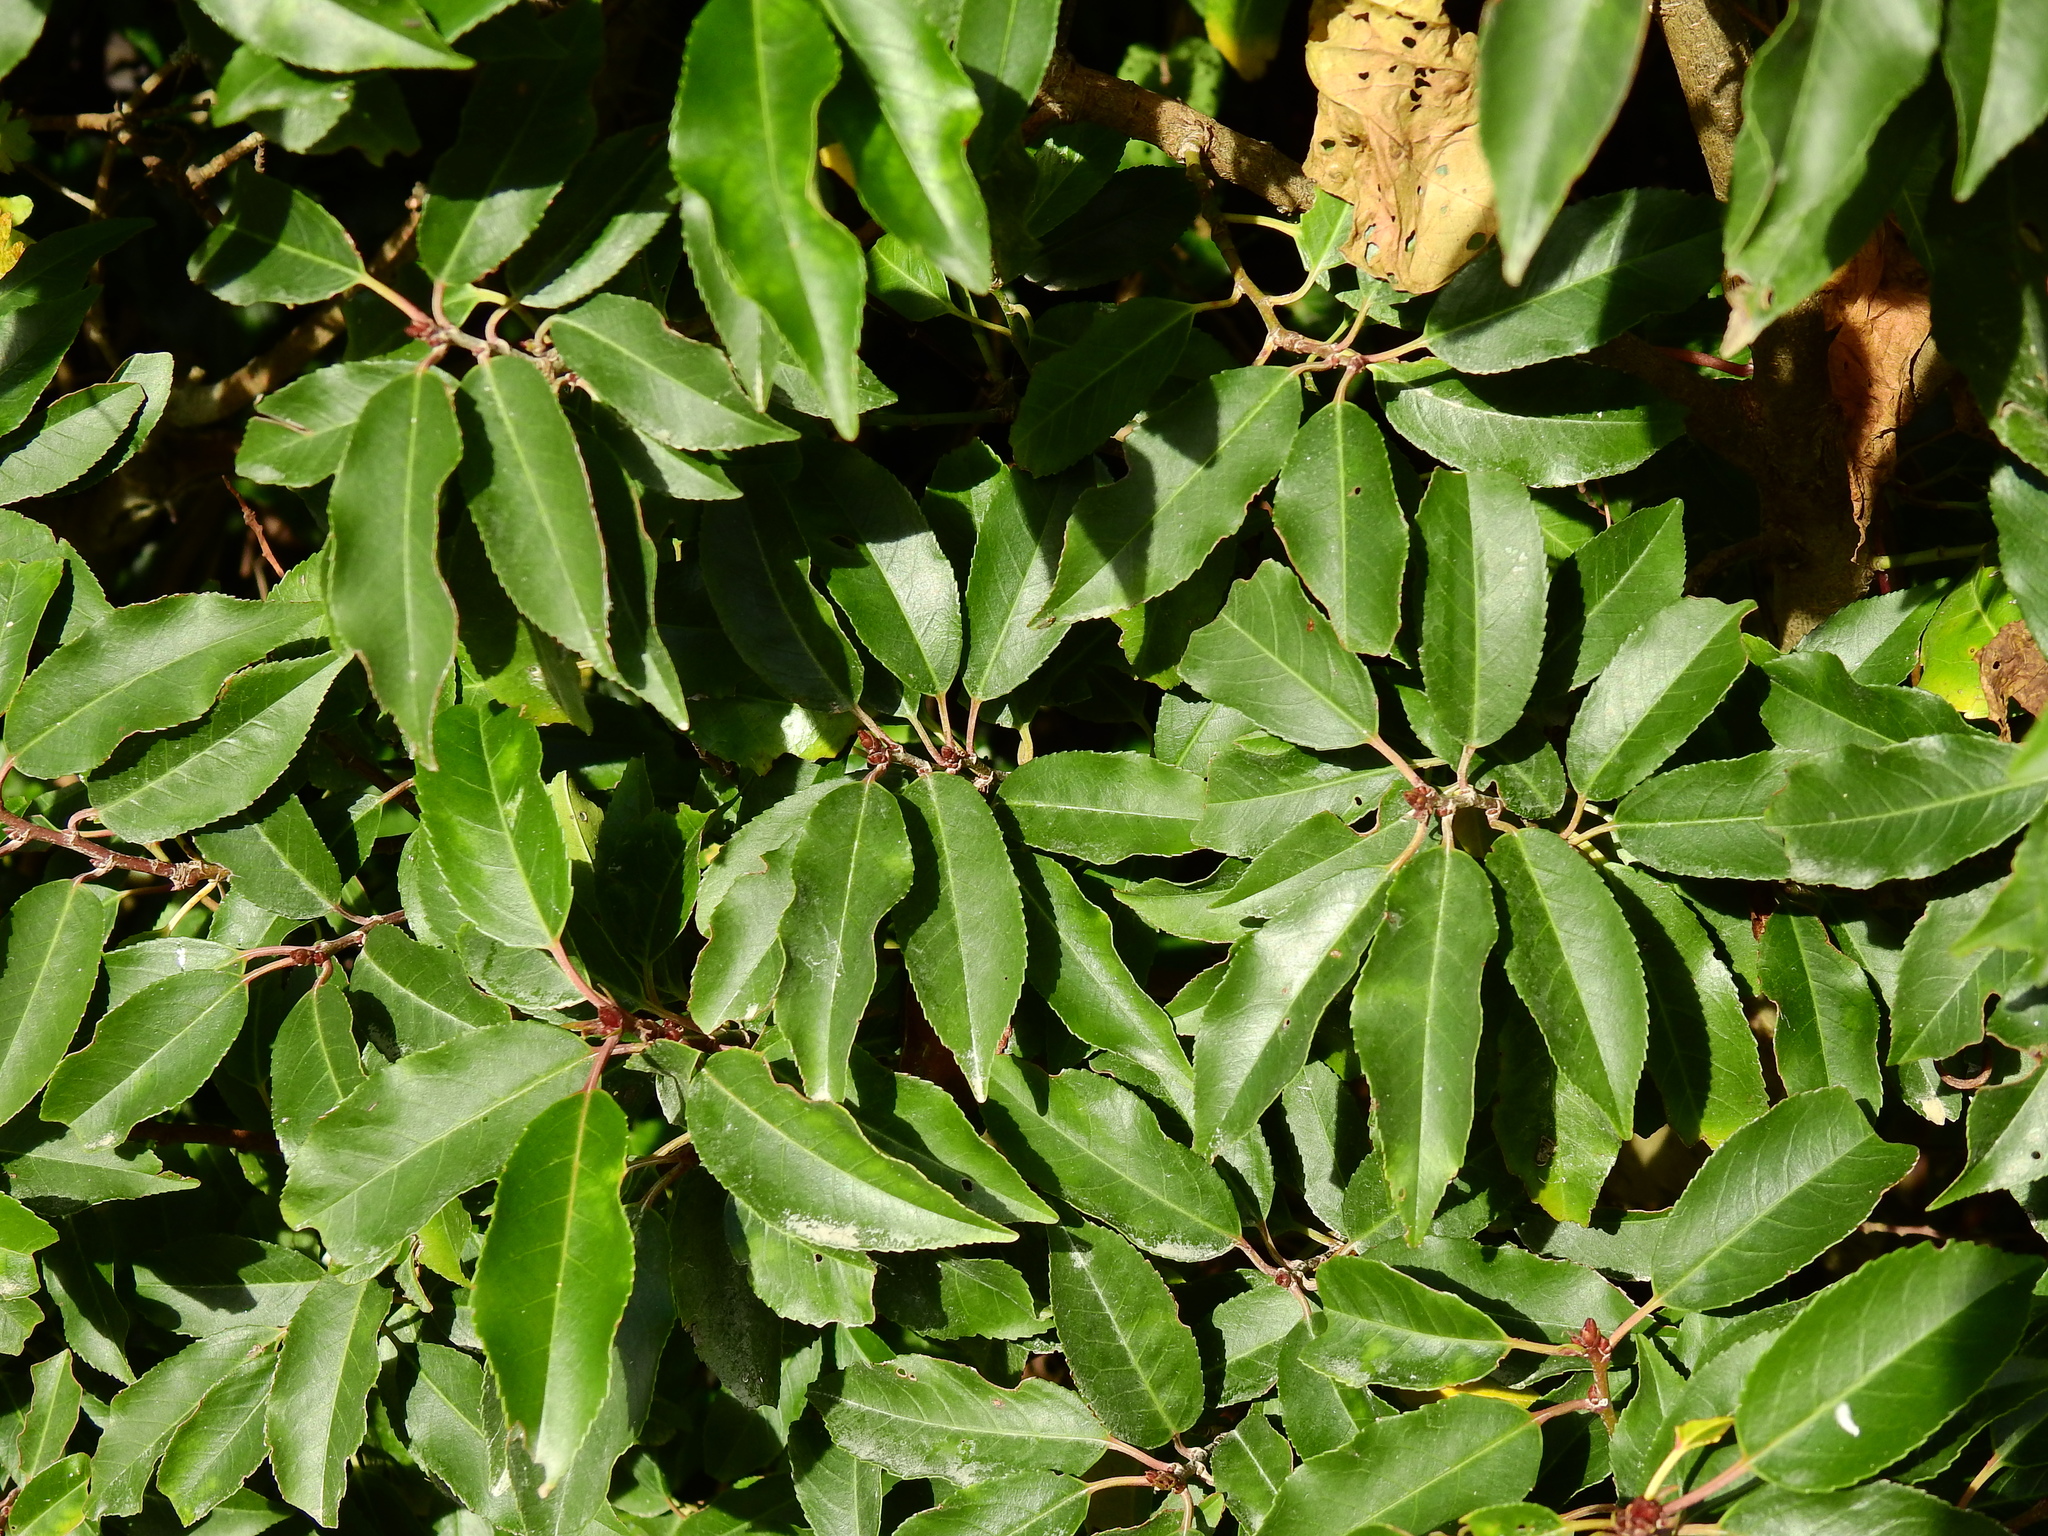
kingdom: Plantae
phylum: Tracheophyta
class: Magnoliopsida
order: Rosales
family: Rosaceae
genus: Prunus
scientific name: Prunus lusitanica
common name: Portugal laurel
